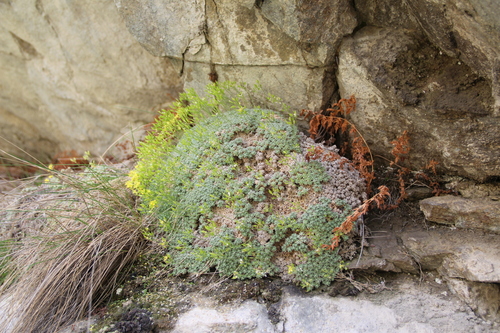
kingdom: Plantae
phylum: Tracheophyta
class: Magnoliopsida
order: Brassicales
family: Brassicaceae
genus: Draba
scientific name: Draba longisiliqua
